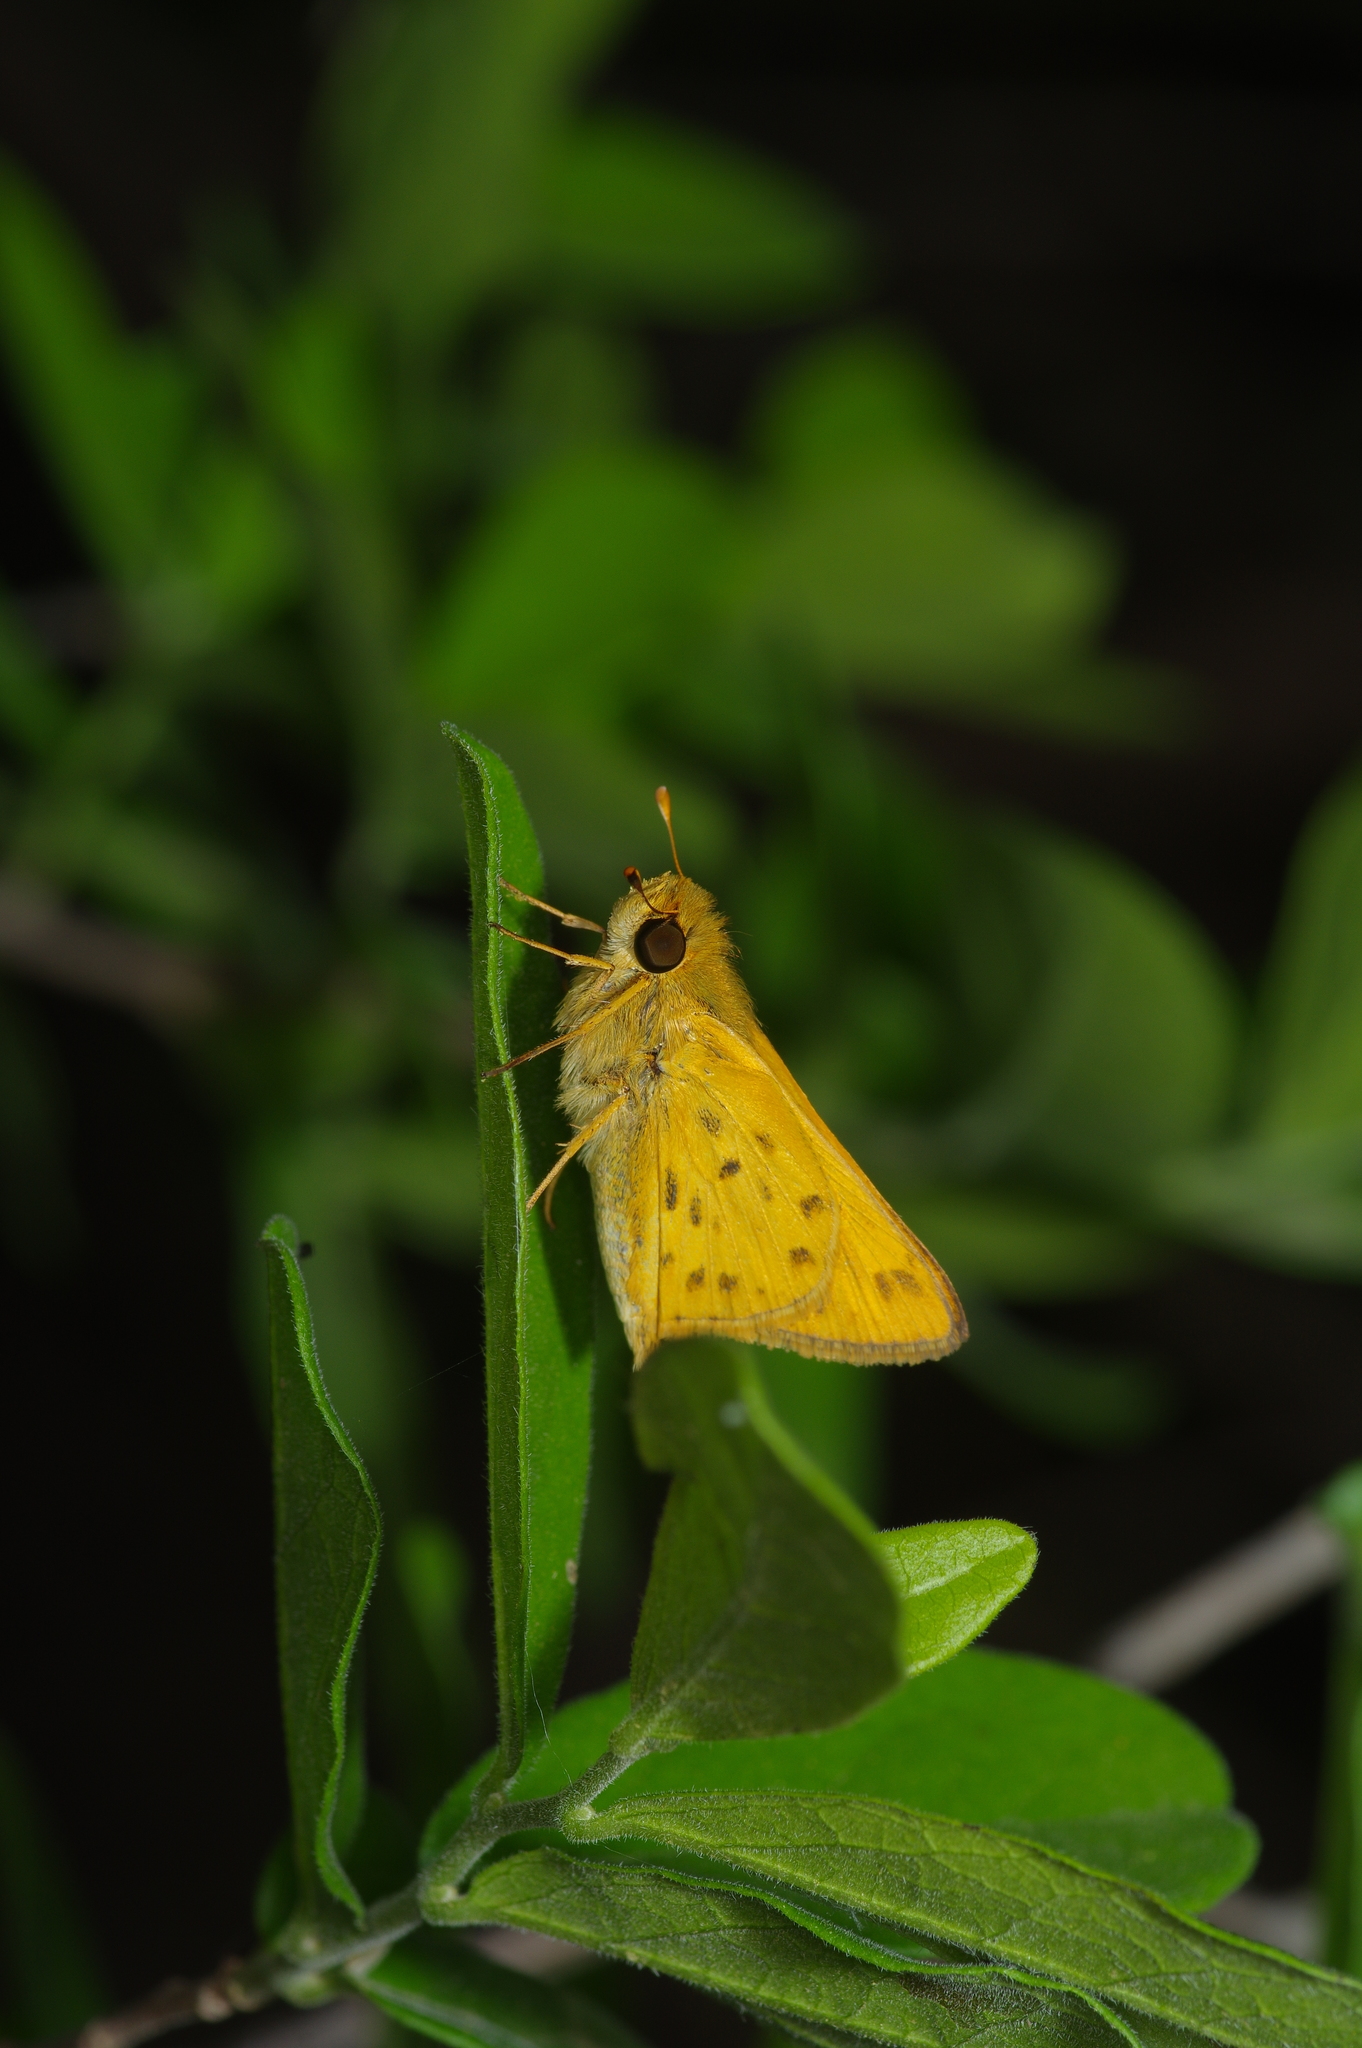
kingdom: Animalia
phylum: Arthropoda
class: Insecta
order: Lepidoptera
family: Hesperiidae
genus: Hylephila
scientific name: Hylephila phyleus
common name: Fiery skipper
